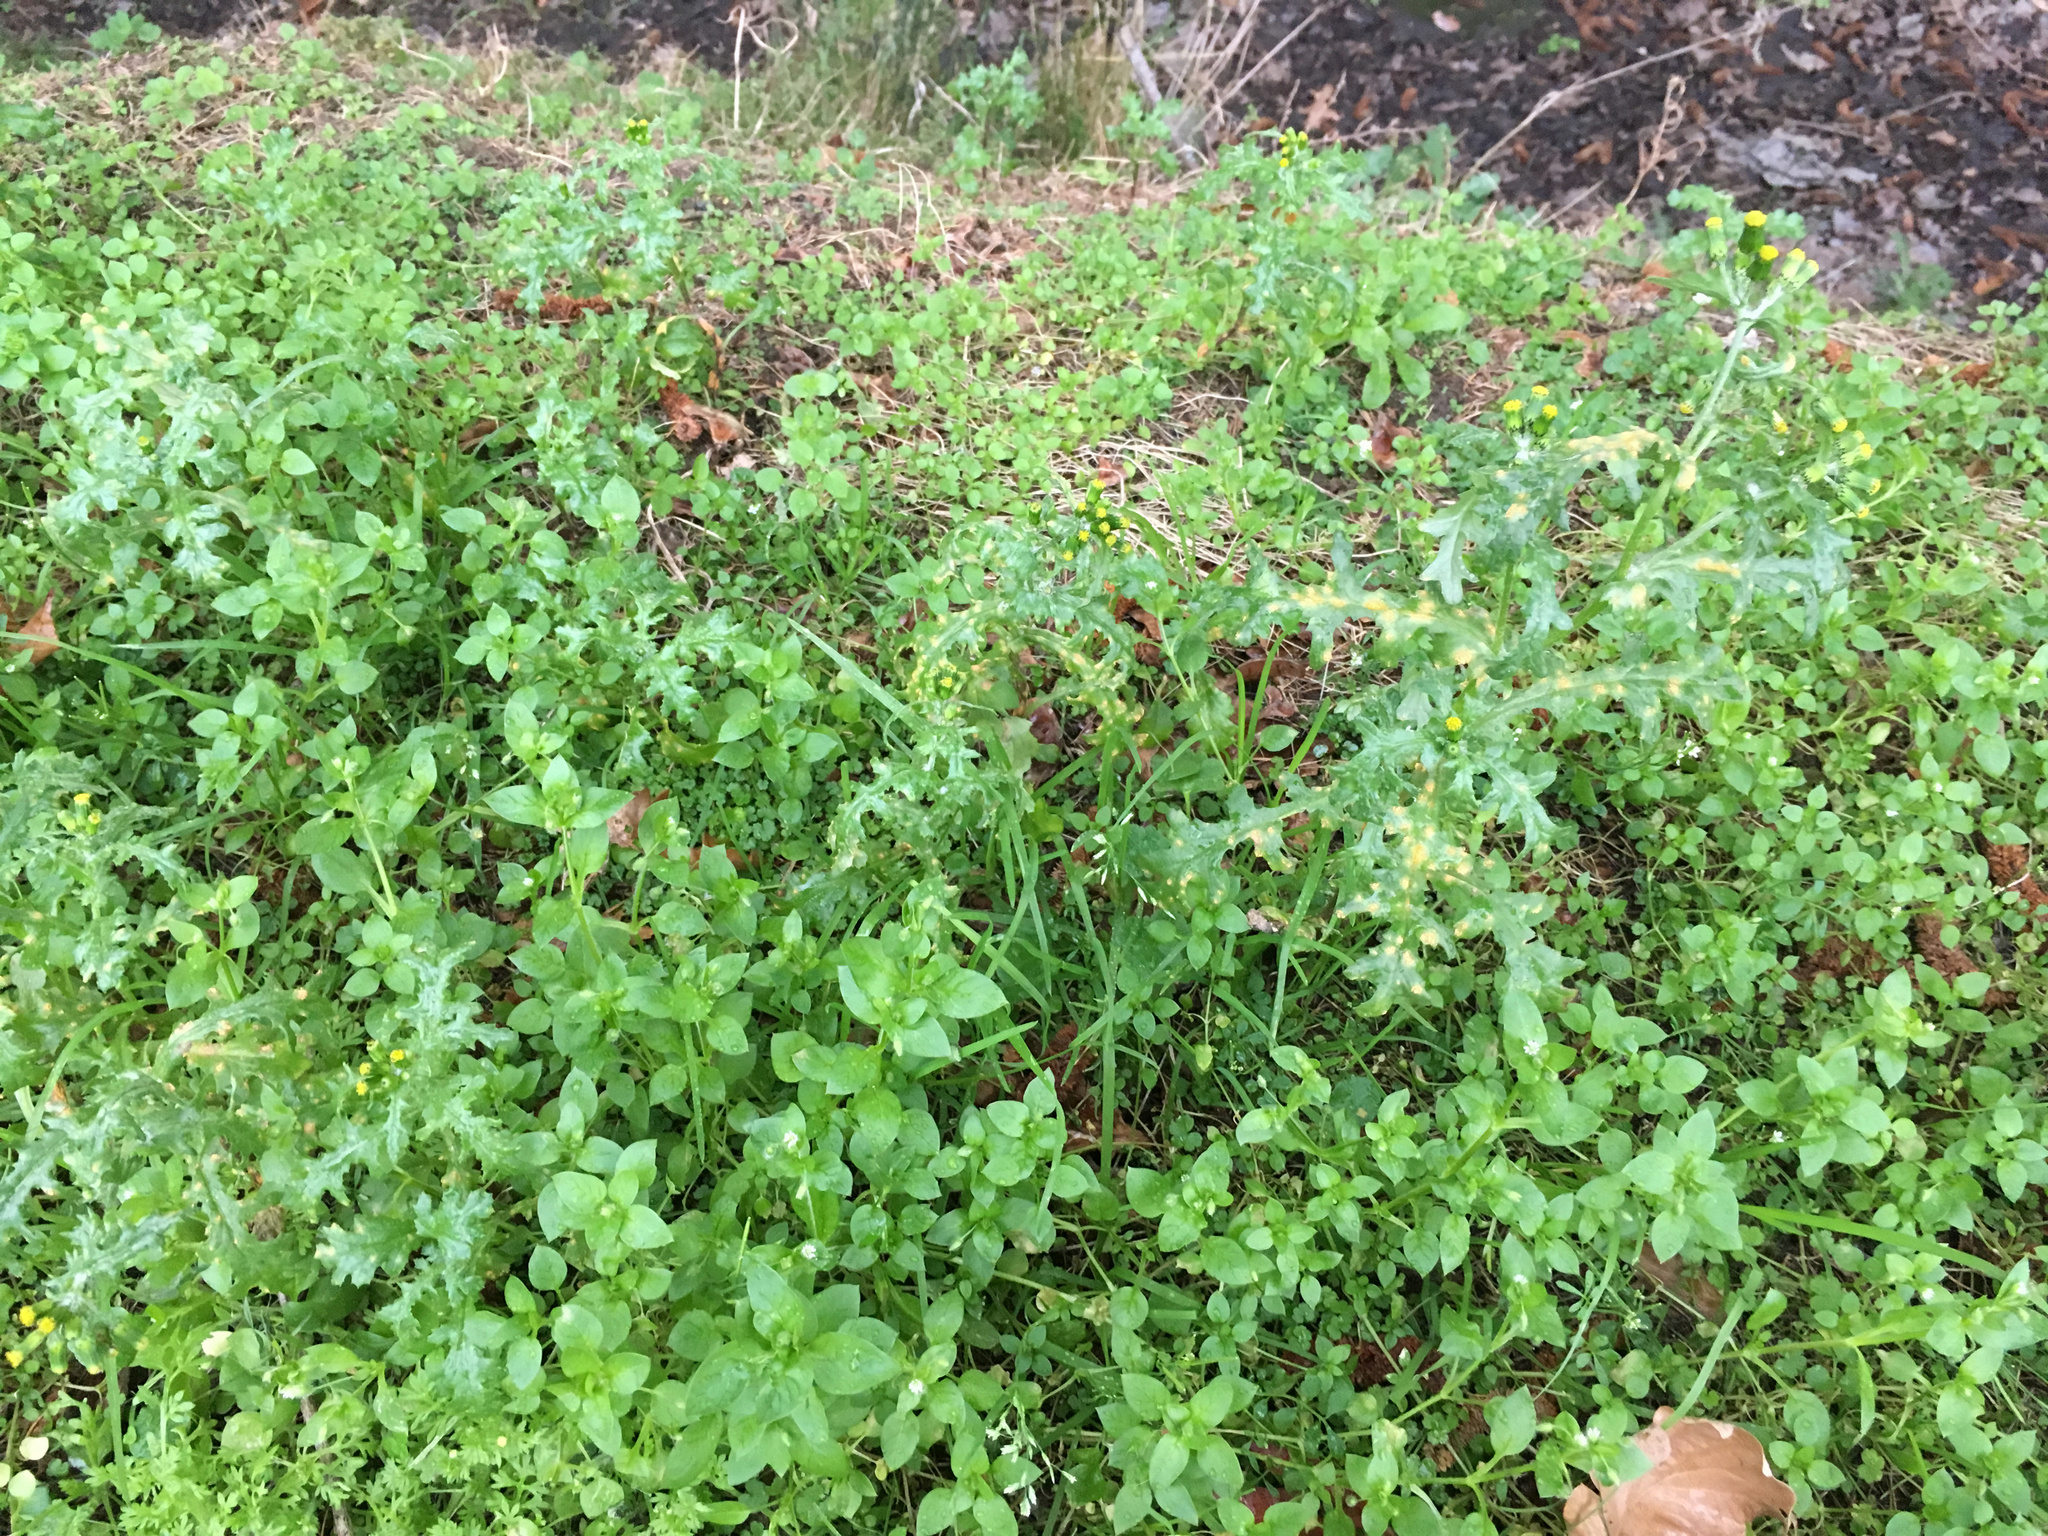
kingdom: Plantae
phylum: Tracheophyta
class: Magnoliopsida
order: Asterales
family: Asteraceae
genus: Senecio
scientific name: Senecio vulgaris
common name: Old-man-in-the-spring
